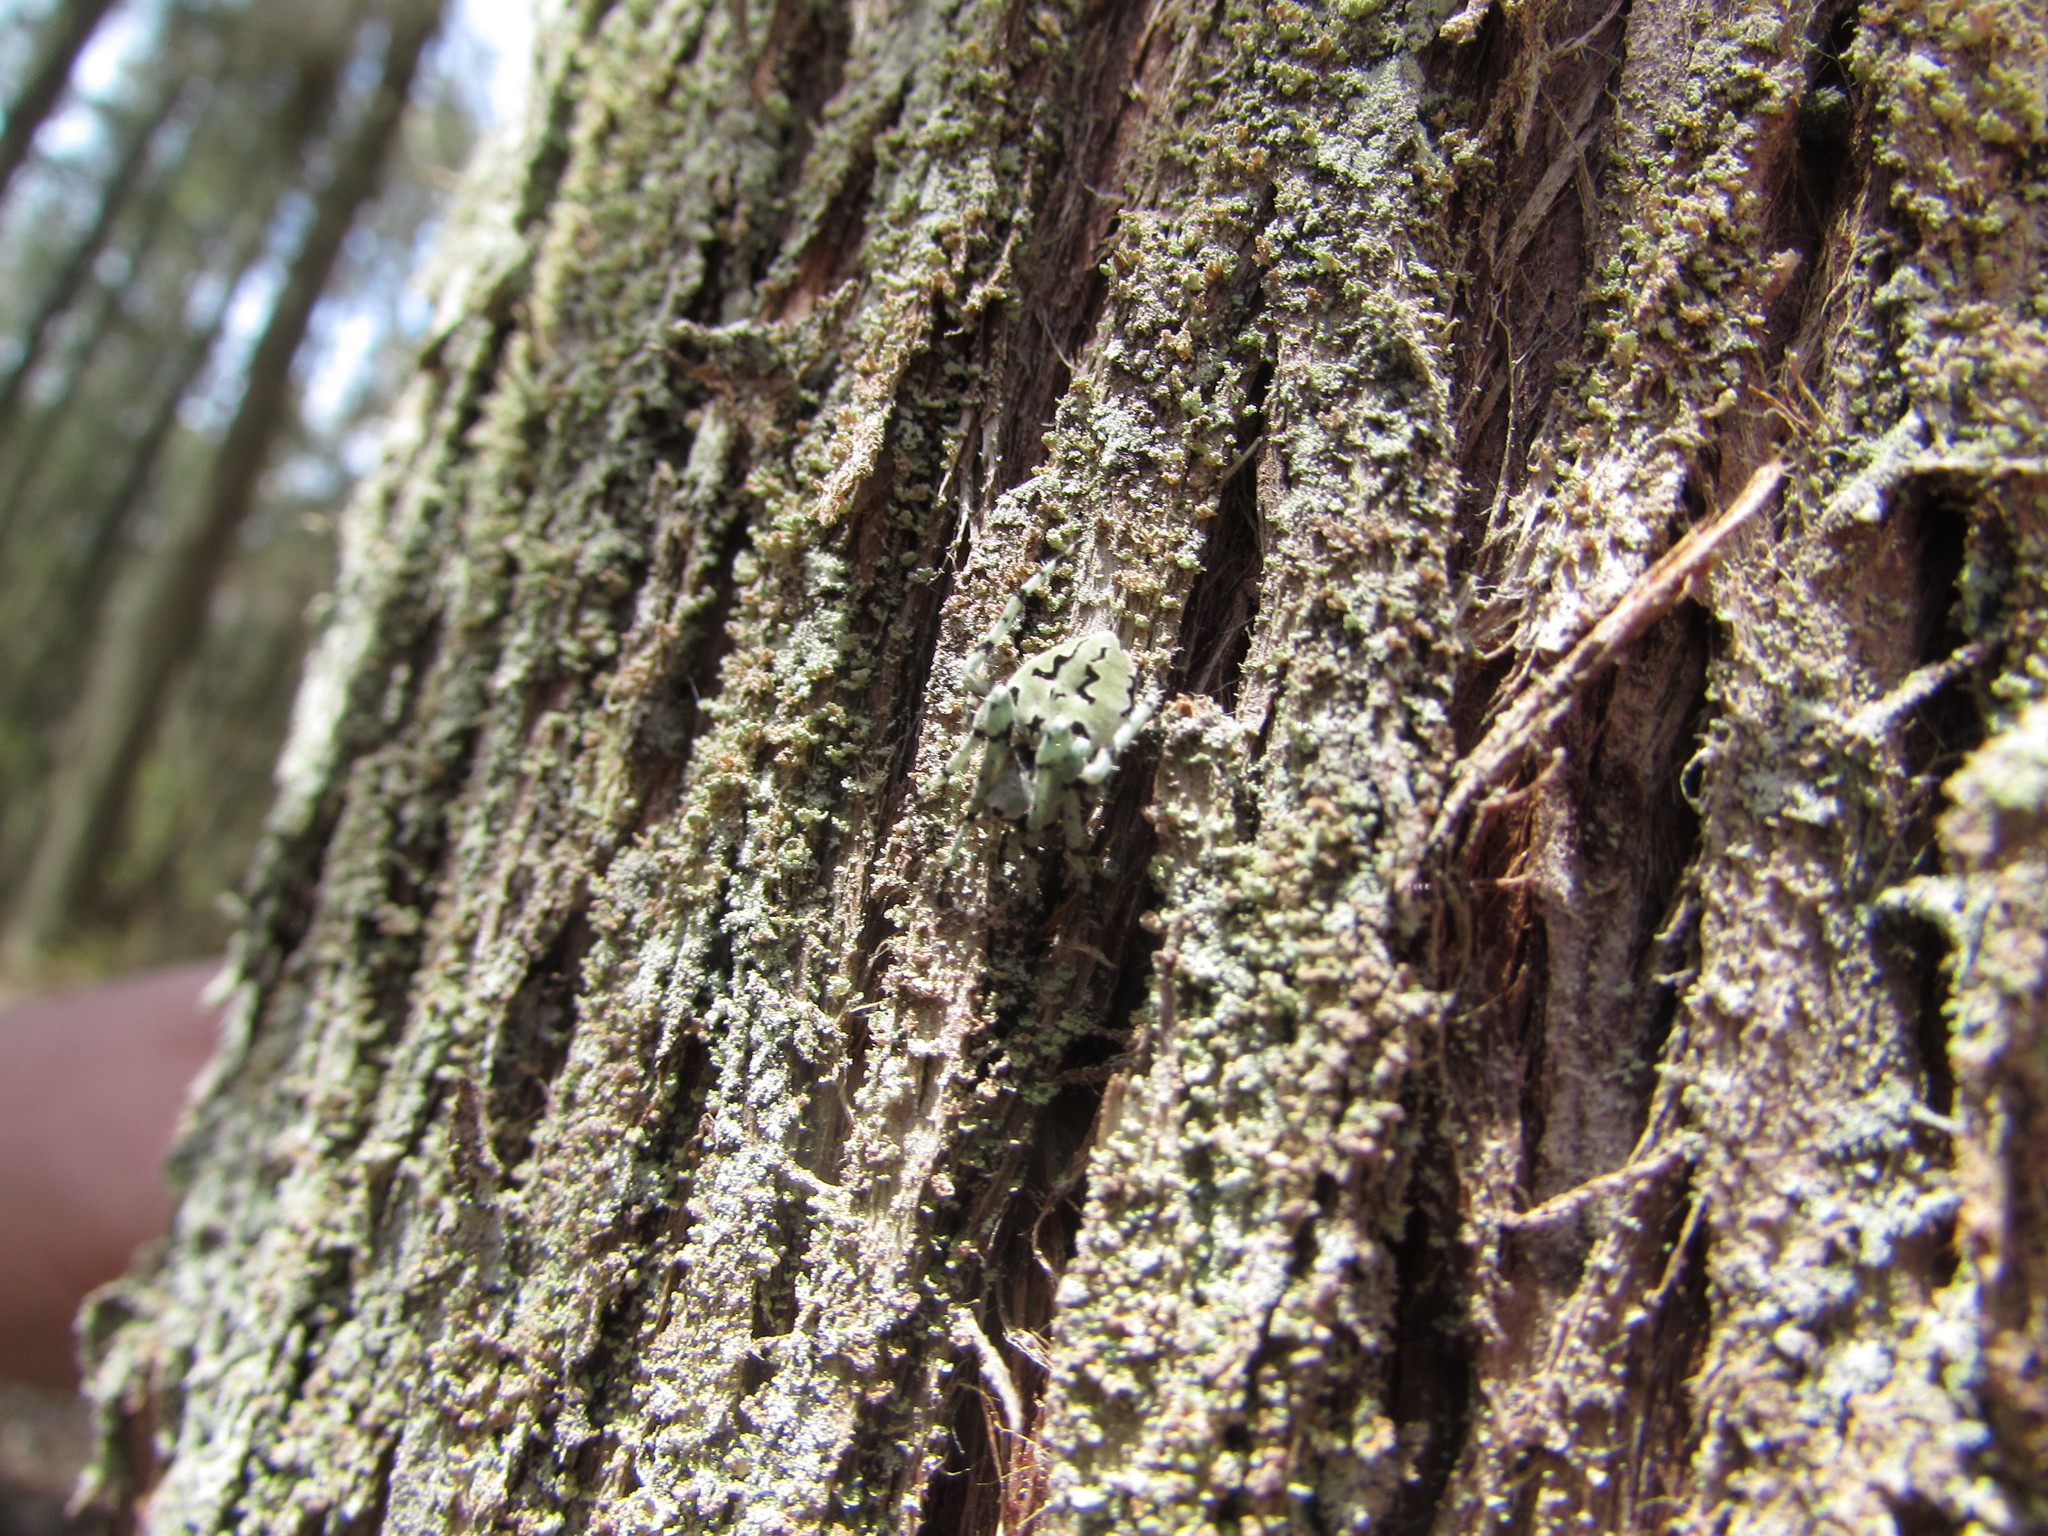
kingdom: Animalia
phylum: Arthropoda
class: Arachnida
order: Araneae
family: Araneidae
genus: Eustala
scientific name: Eustala anastera
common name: Orb weavers
